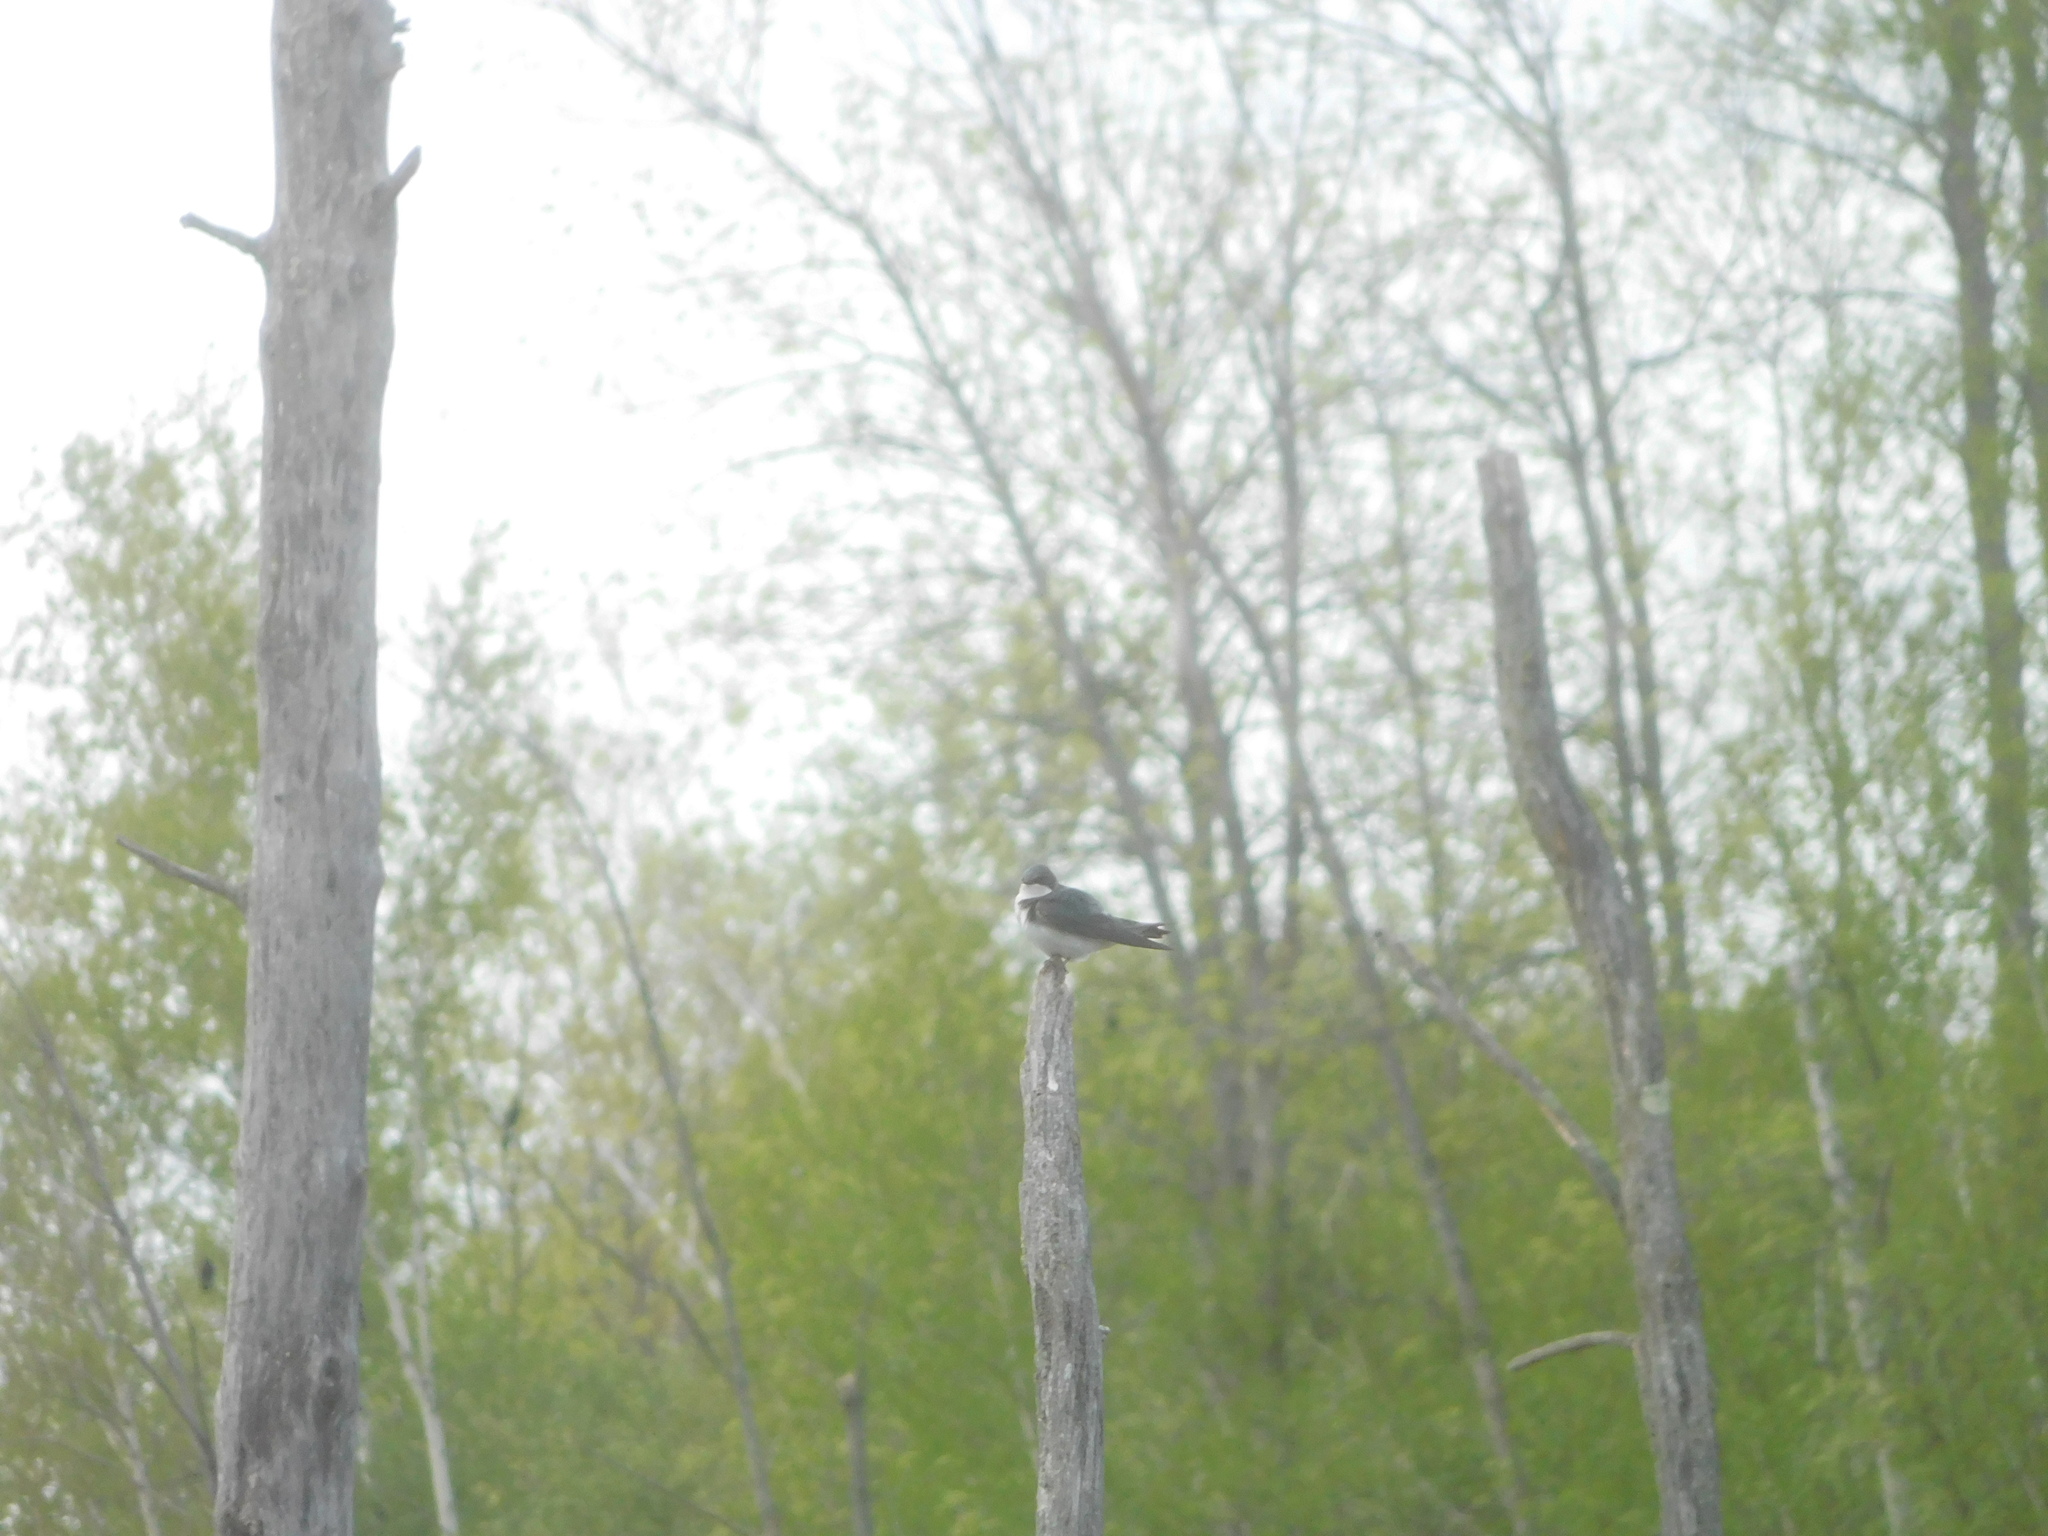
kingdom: Animalia
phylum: Chordata
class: Aves
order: Passeriformes
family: Hirundinidae
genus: Tachycineta
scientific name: Tachycineta bicolor
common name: Tree swallow
